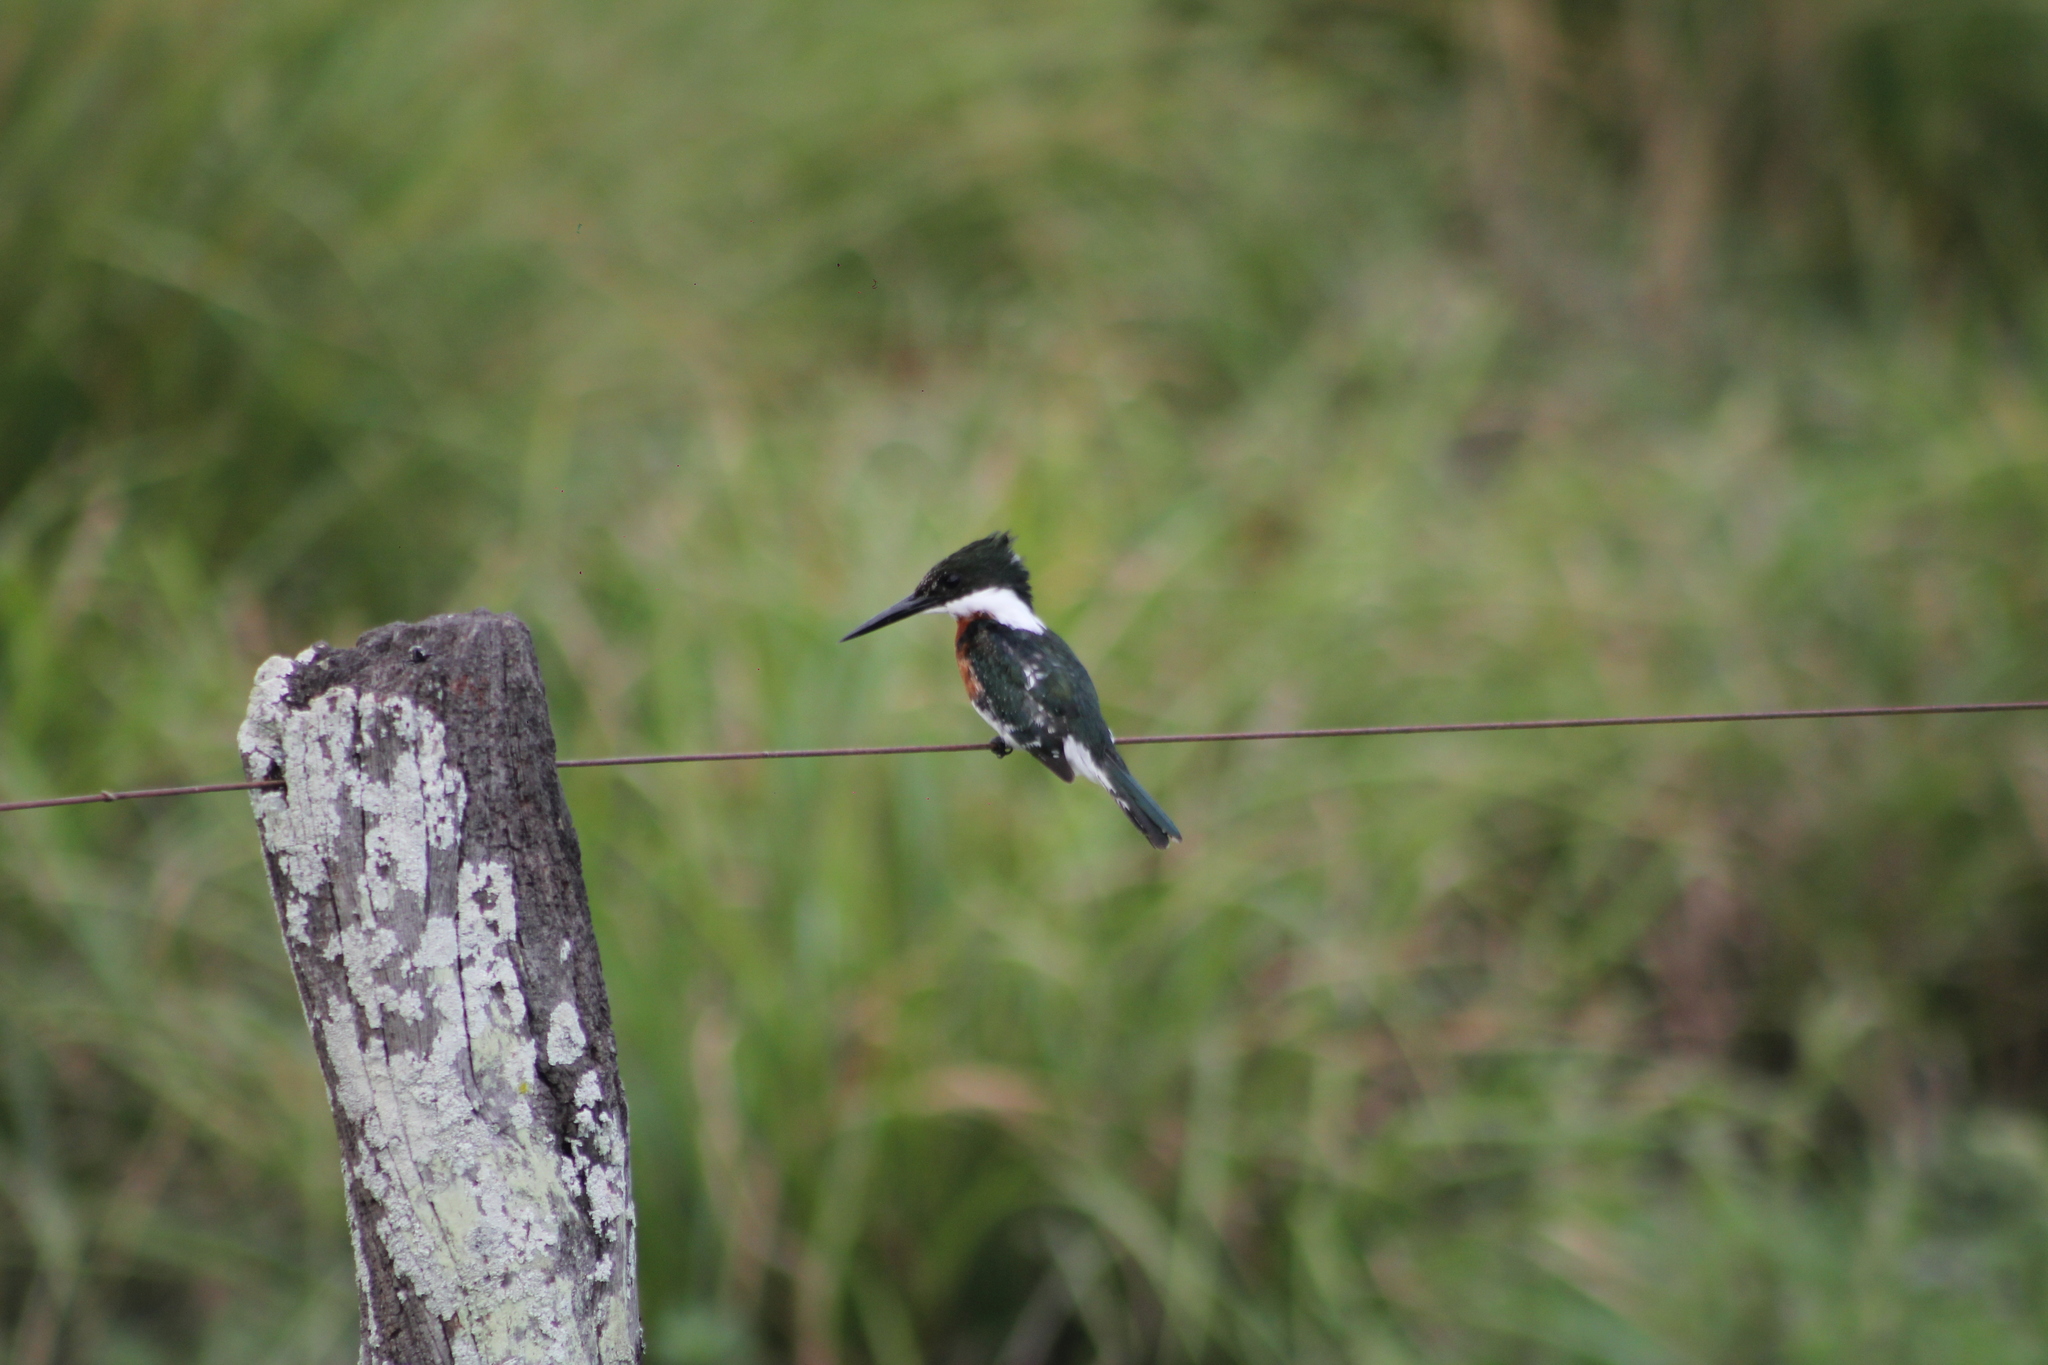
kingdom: Animalia
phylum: Chordata
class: Aves
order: Coraciiformes
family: Alcedinidae
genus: Chloroceryle
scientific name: Chloroceryle americana
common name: Green kingfisher
